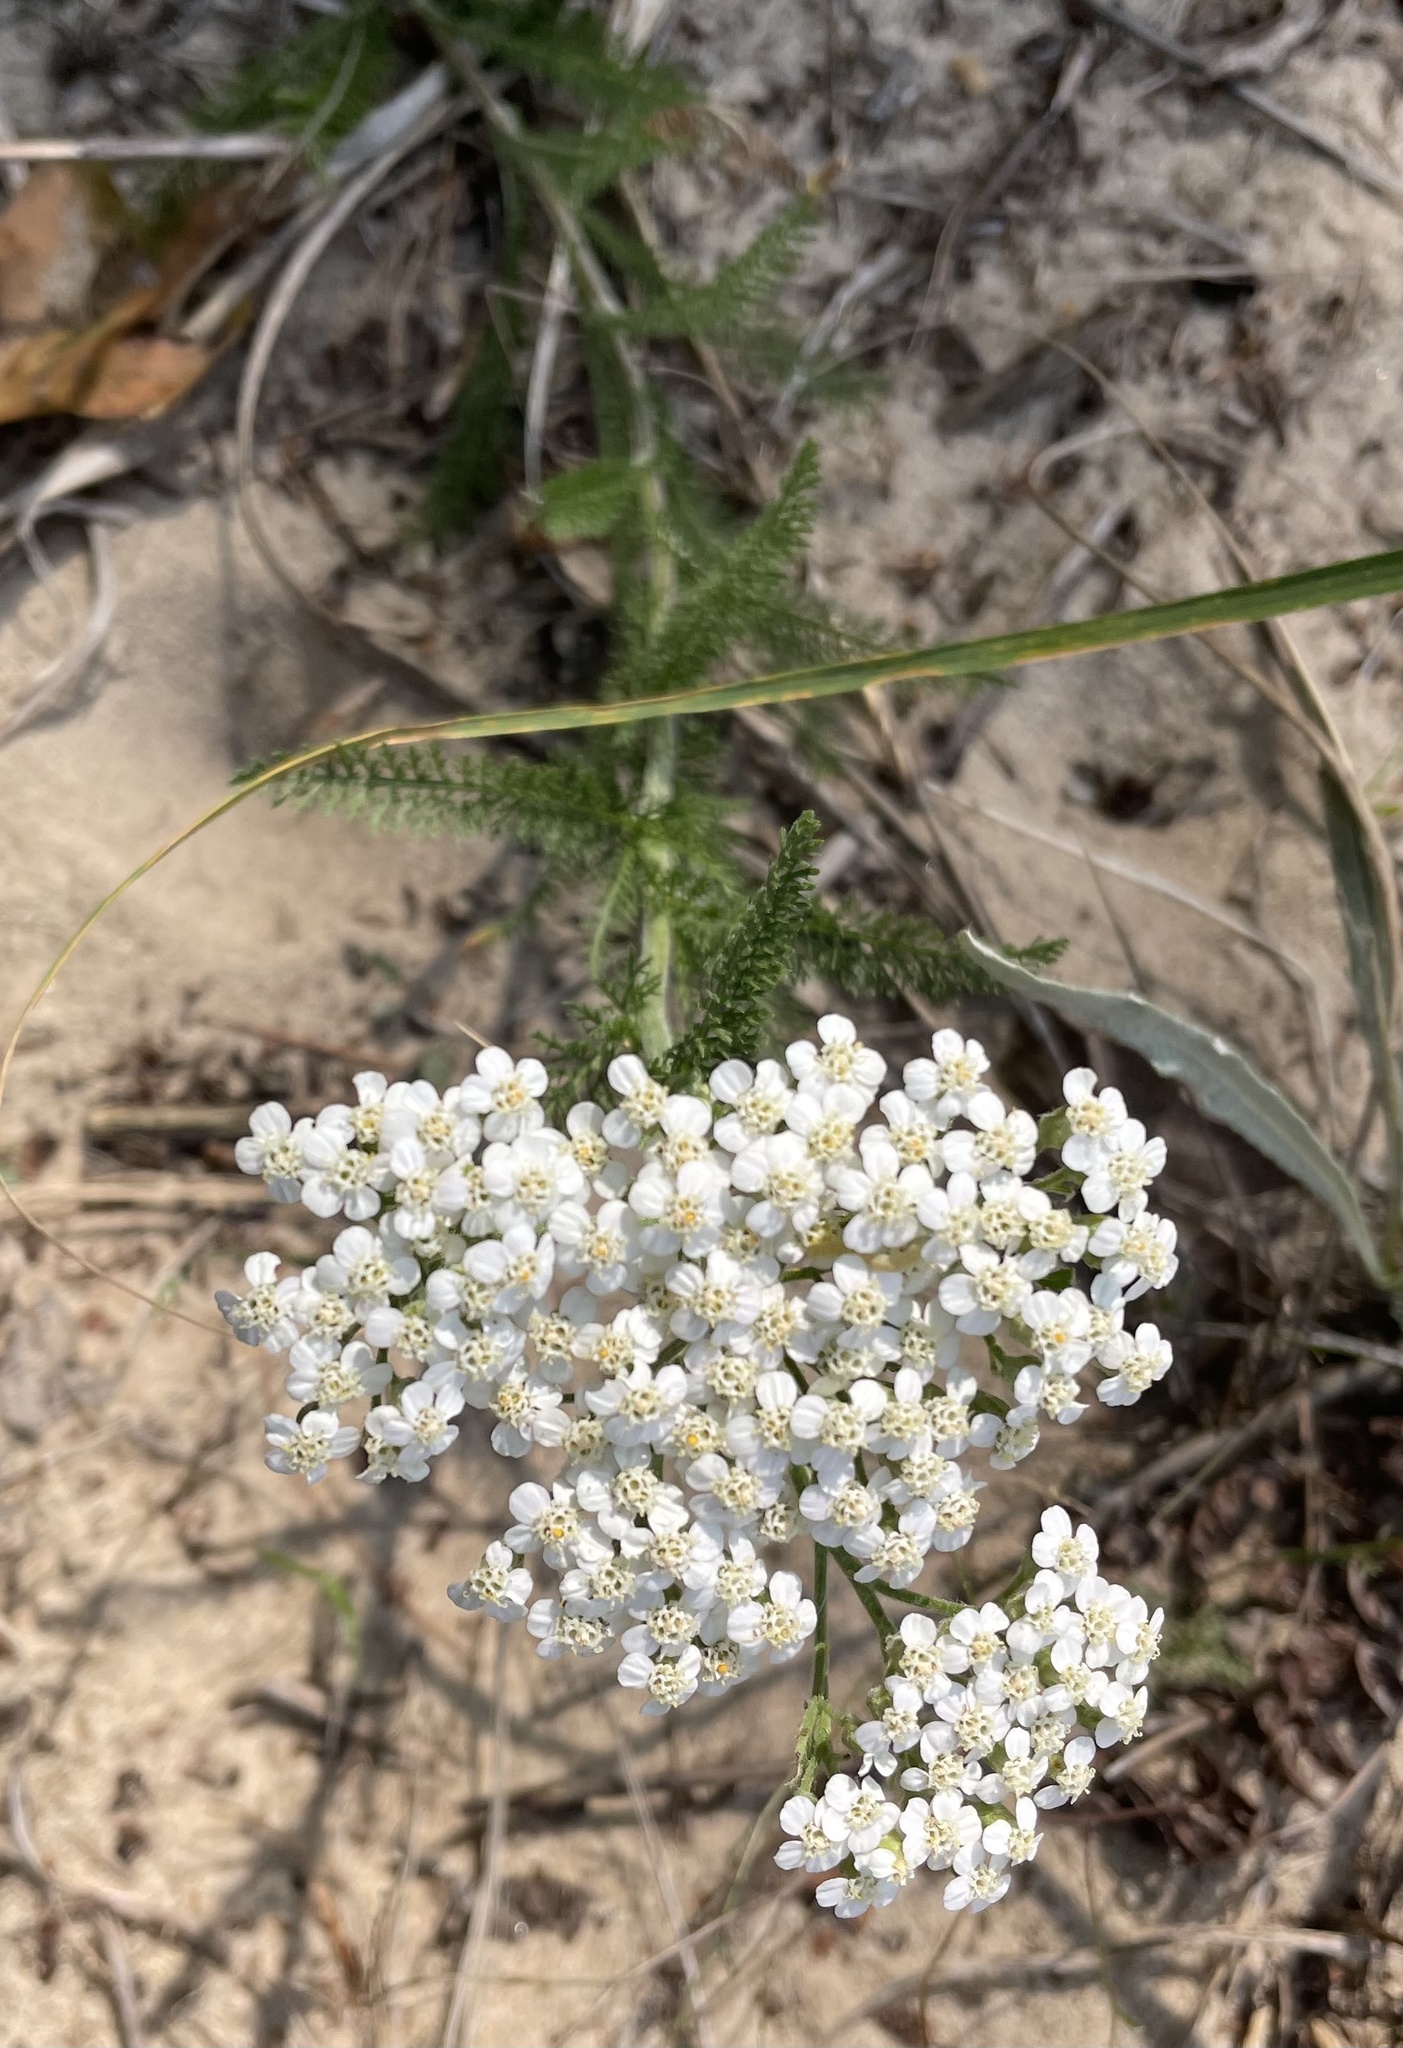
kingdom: Plantae
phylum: Tracheophyta
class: Magnoliopsida
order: Asterales
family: Asteraceae
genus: Achillea
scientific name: Achillea millefolium
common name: Yarrow
